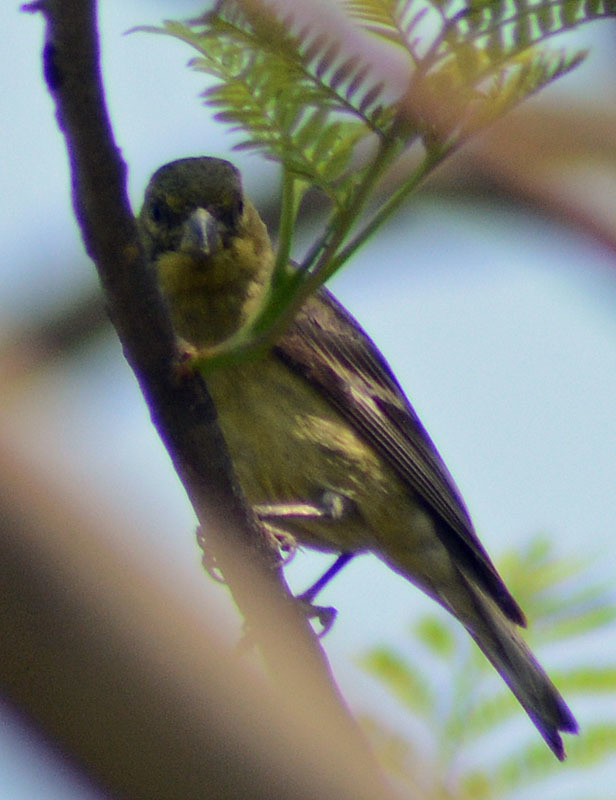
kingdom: Animalia
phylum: Chordata
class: Aves
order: Passeriformes
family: Fringillidae
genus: Spinus
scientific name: Spinus psaltria
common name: Lesser goldfinch
